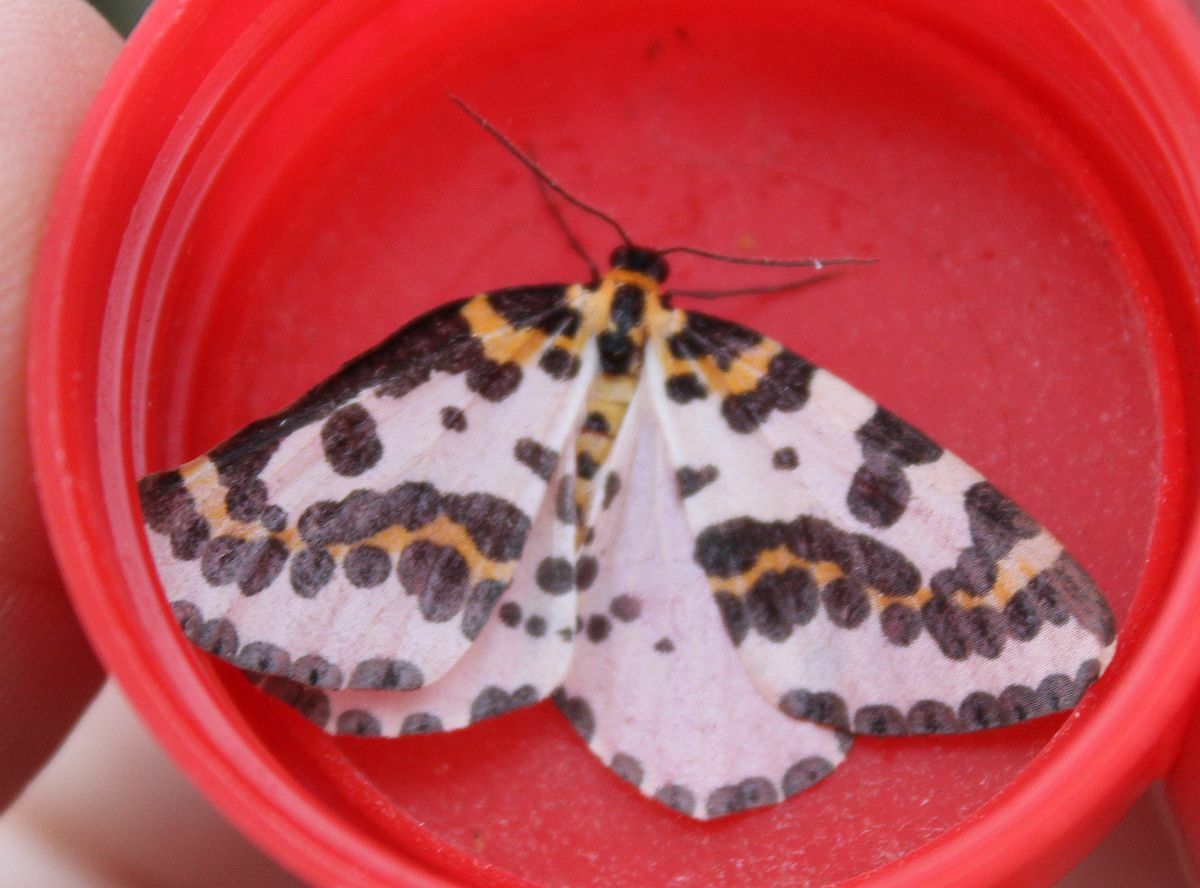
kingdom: Animalia
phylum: Arthropoda
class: Insecta
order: Lepidoptera
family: Geometridae
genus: Abraxas
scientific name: Abraxas grossulariata
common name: Magpie
